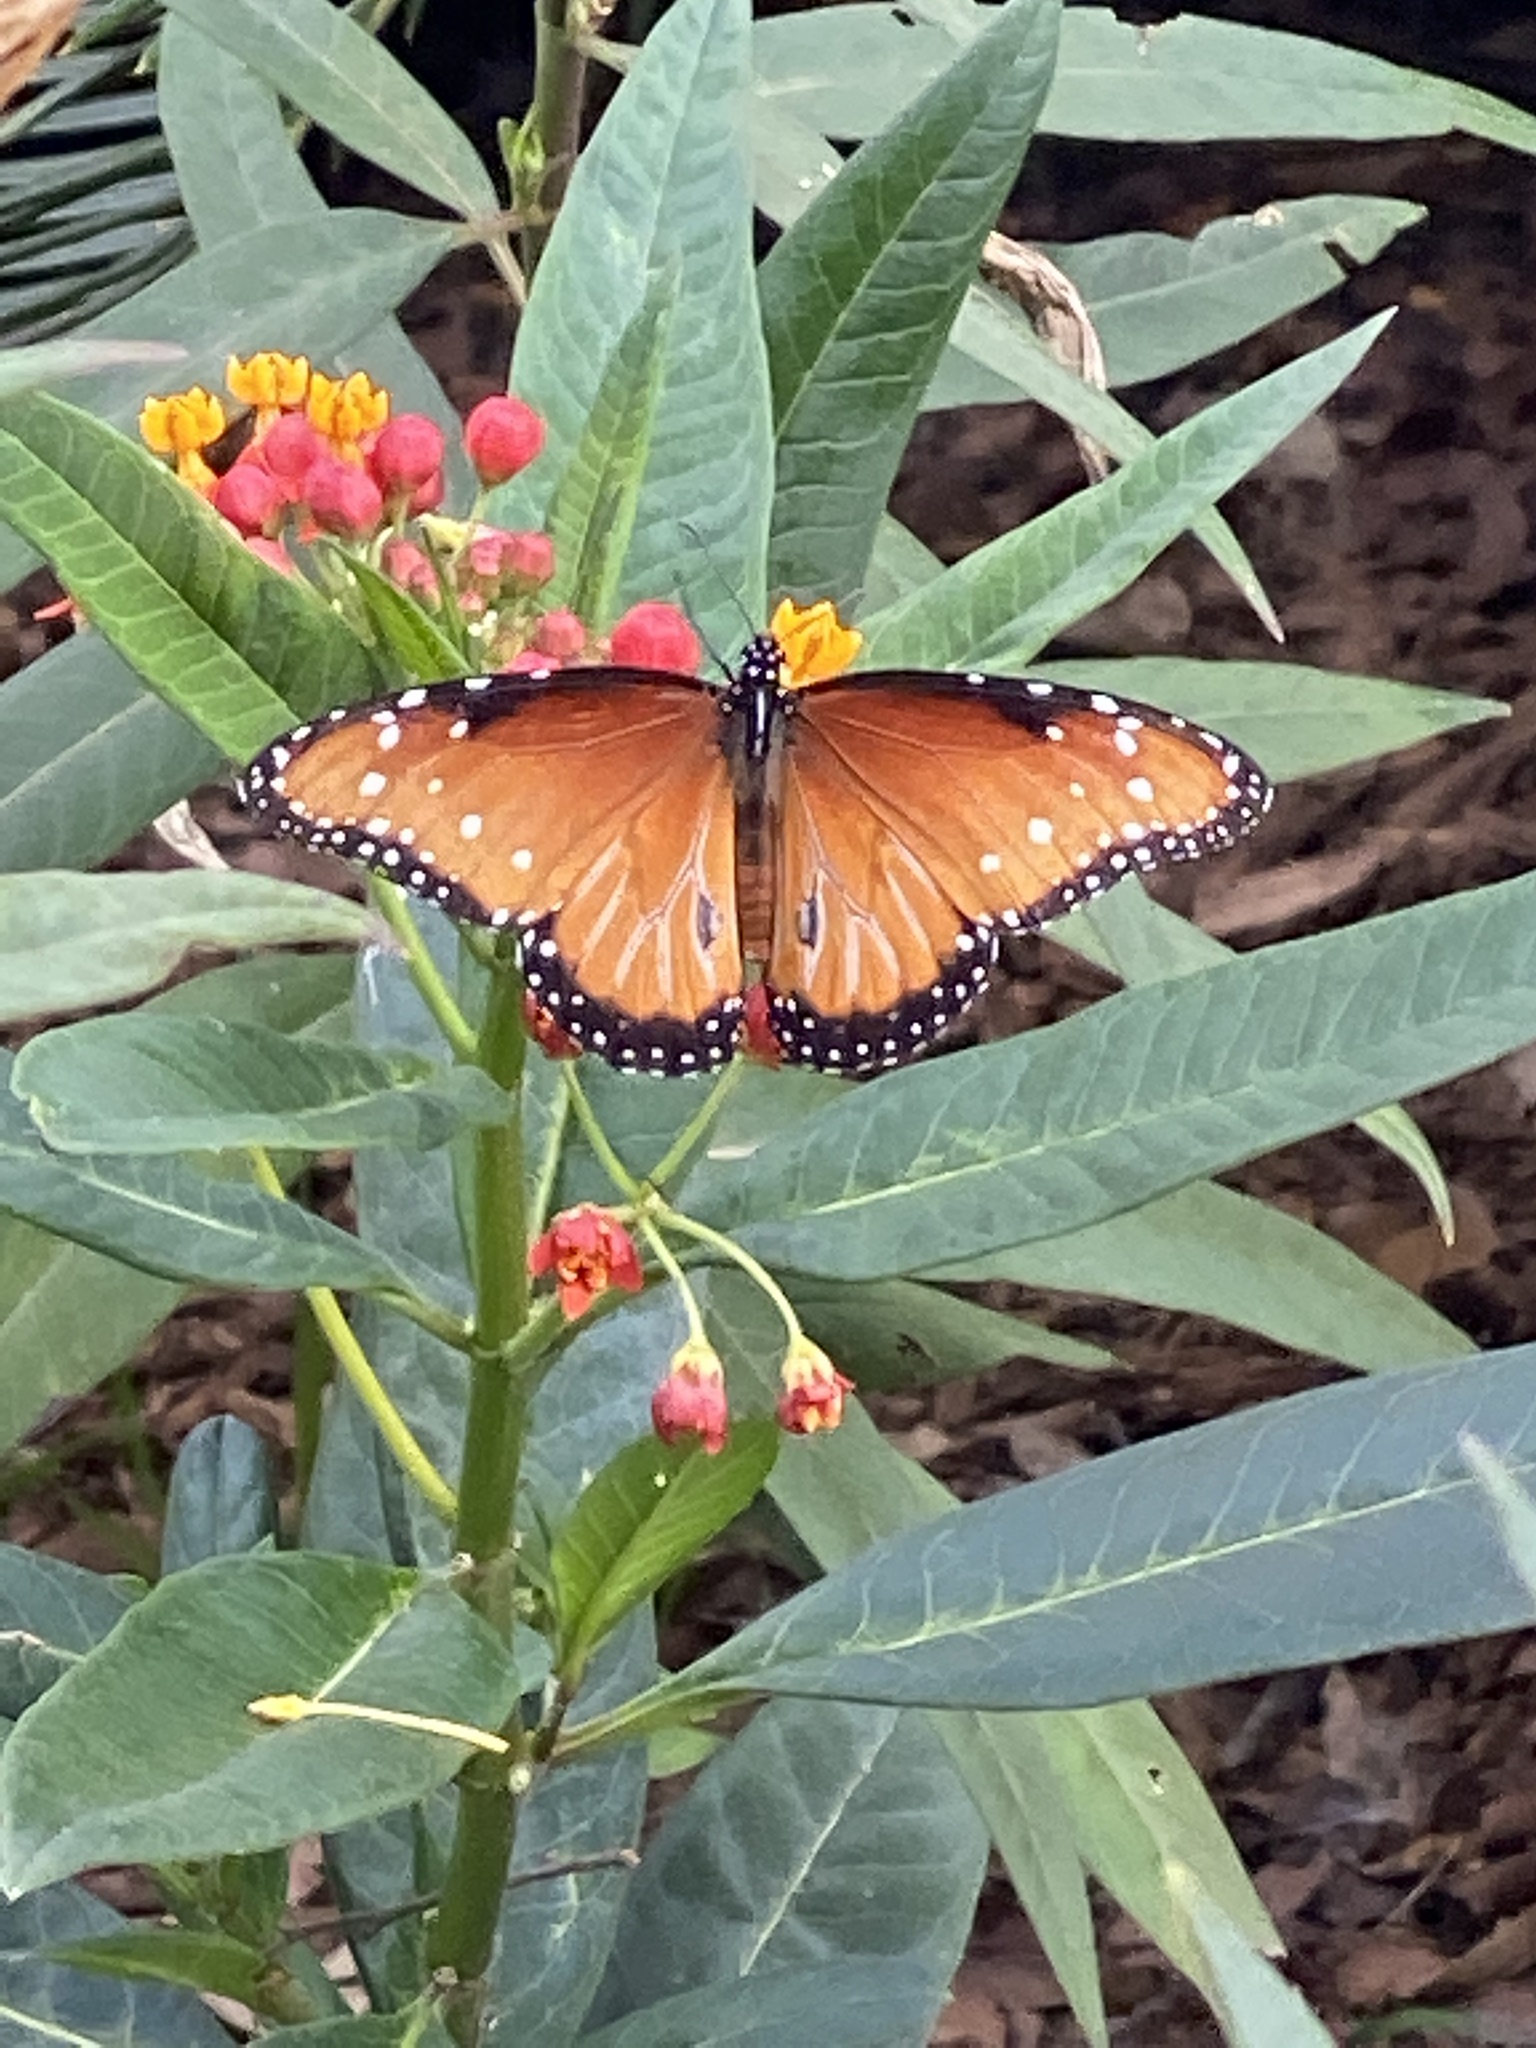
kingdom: Animalia
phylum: Arthropoda
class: Insecta
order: Lepidoptera
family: Nymphalidae
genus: Danaus
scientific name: Danaus gilippus
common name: Queen
